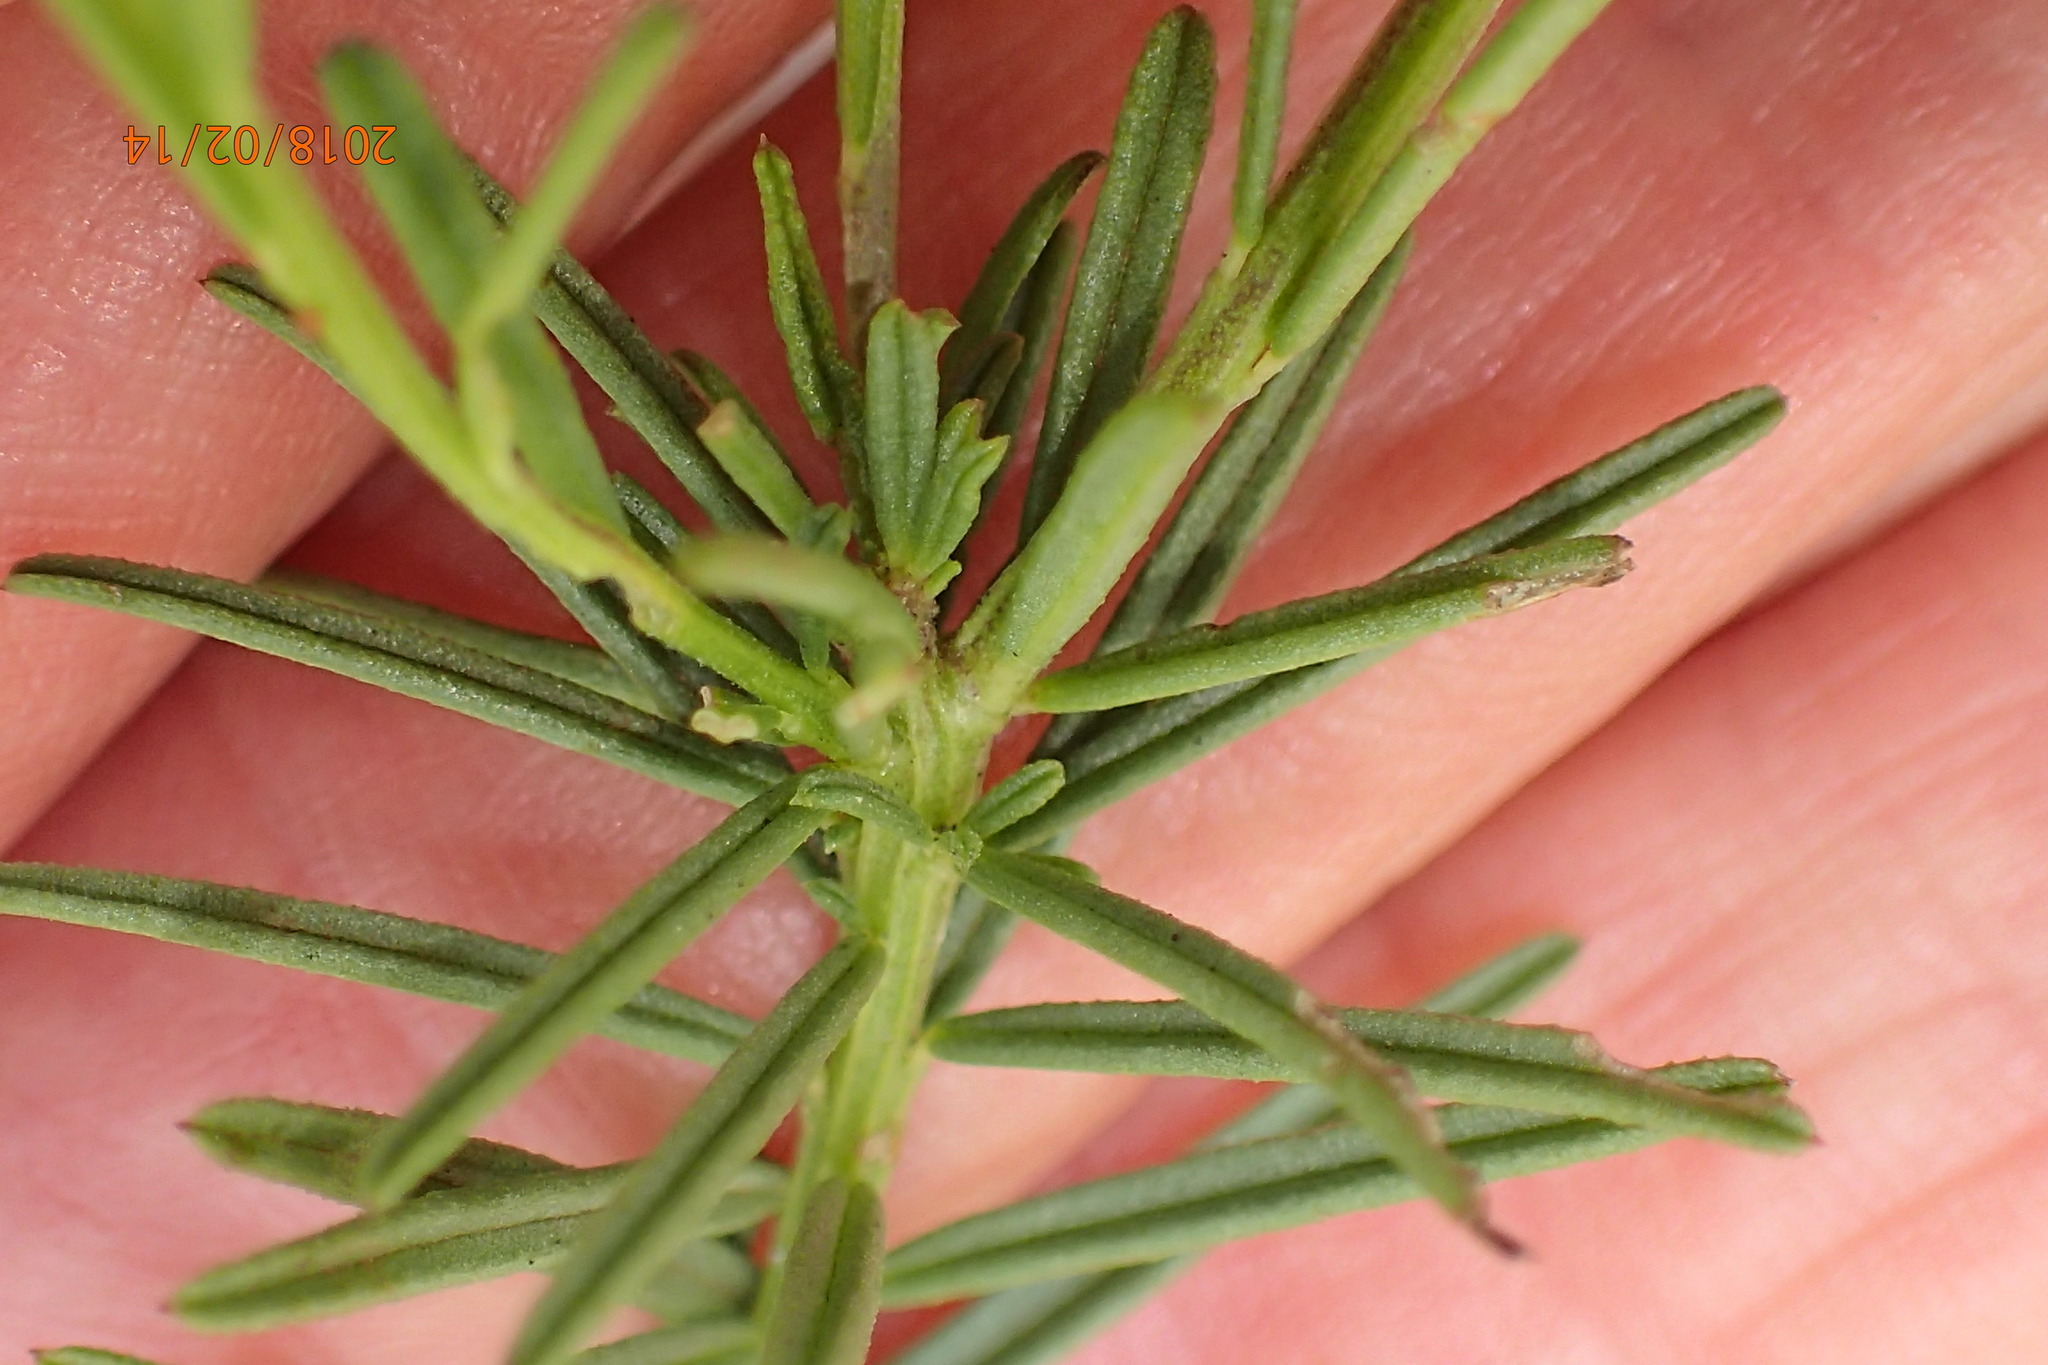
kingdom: Plantae
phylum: Tracheophyta
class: Magnoliopsida
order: Fabales
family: Polygalaceae
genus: Polygala
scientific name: Polygala rehmannii
